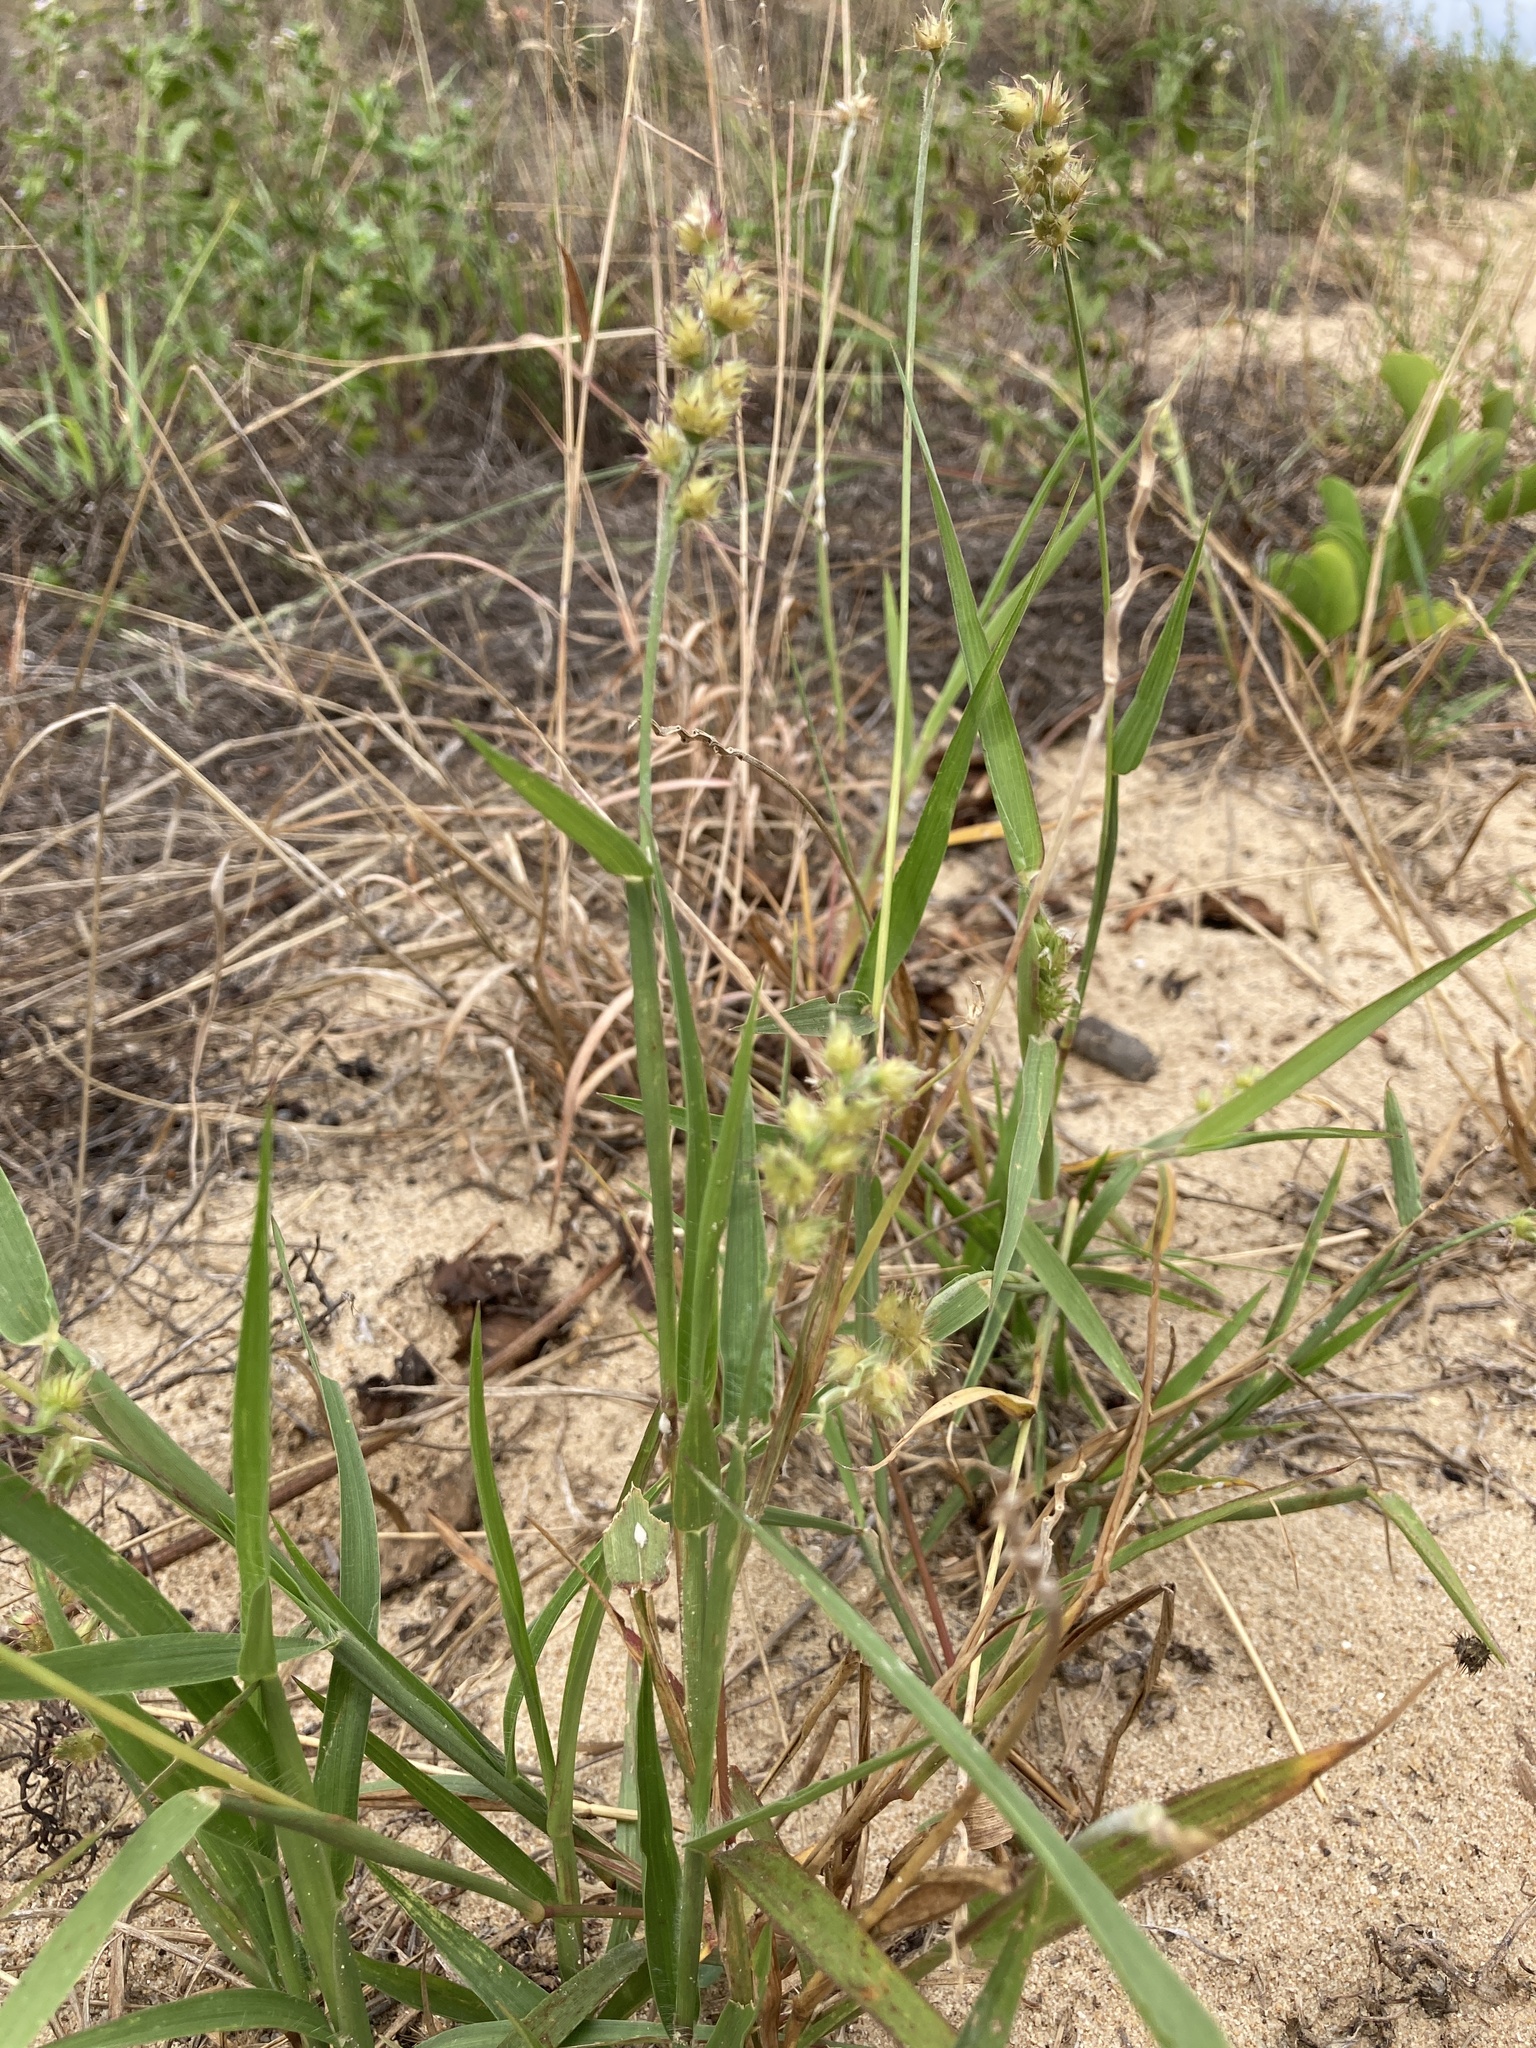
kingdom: Plantae
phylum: Tracheophyta
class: Liliopsida
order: Poales
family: Poaceae
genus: Cenchrus
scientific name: Cenchrus echinatus
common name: Southern sandbur
